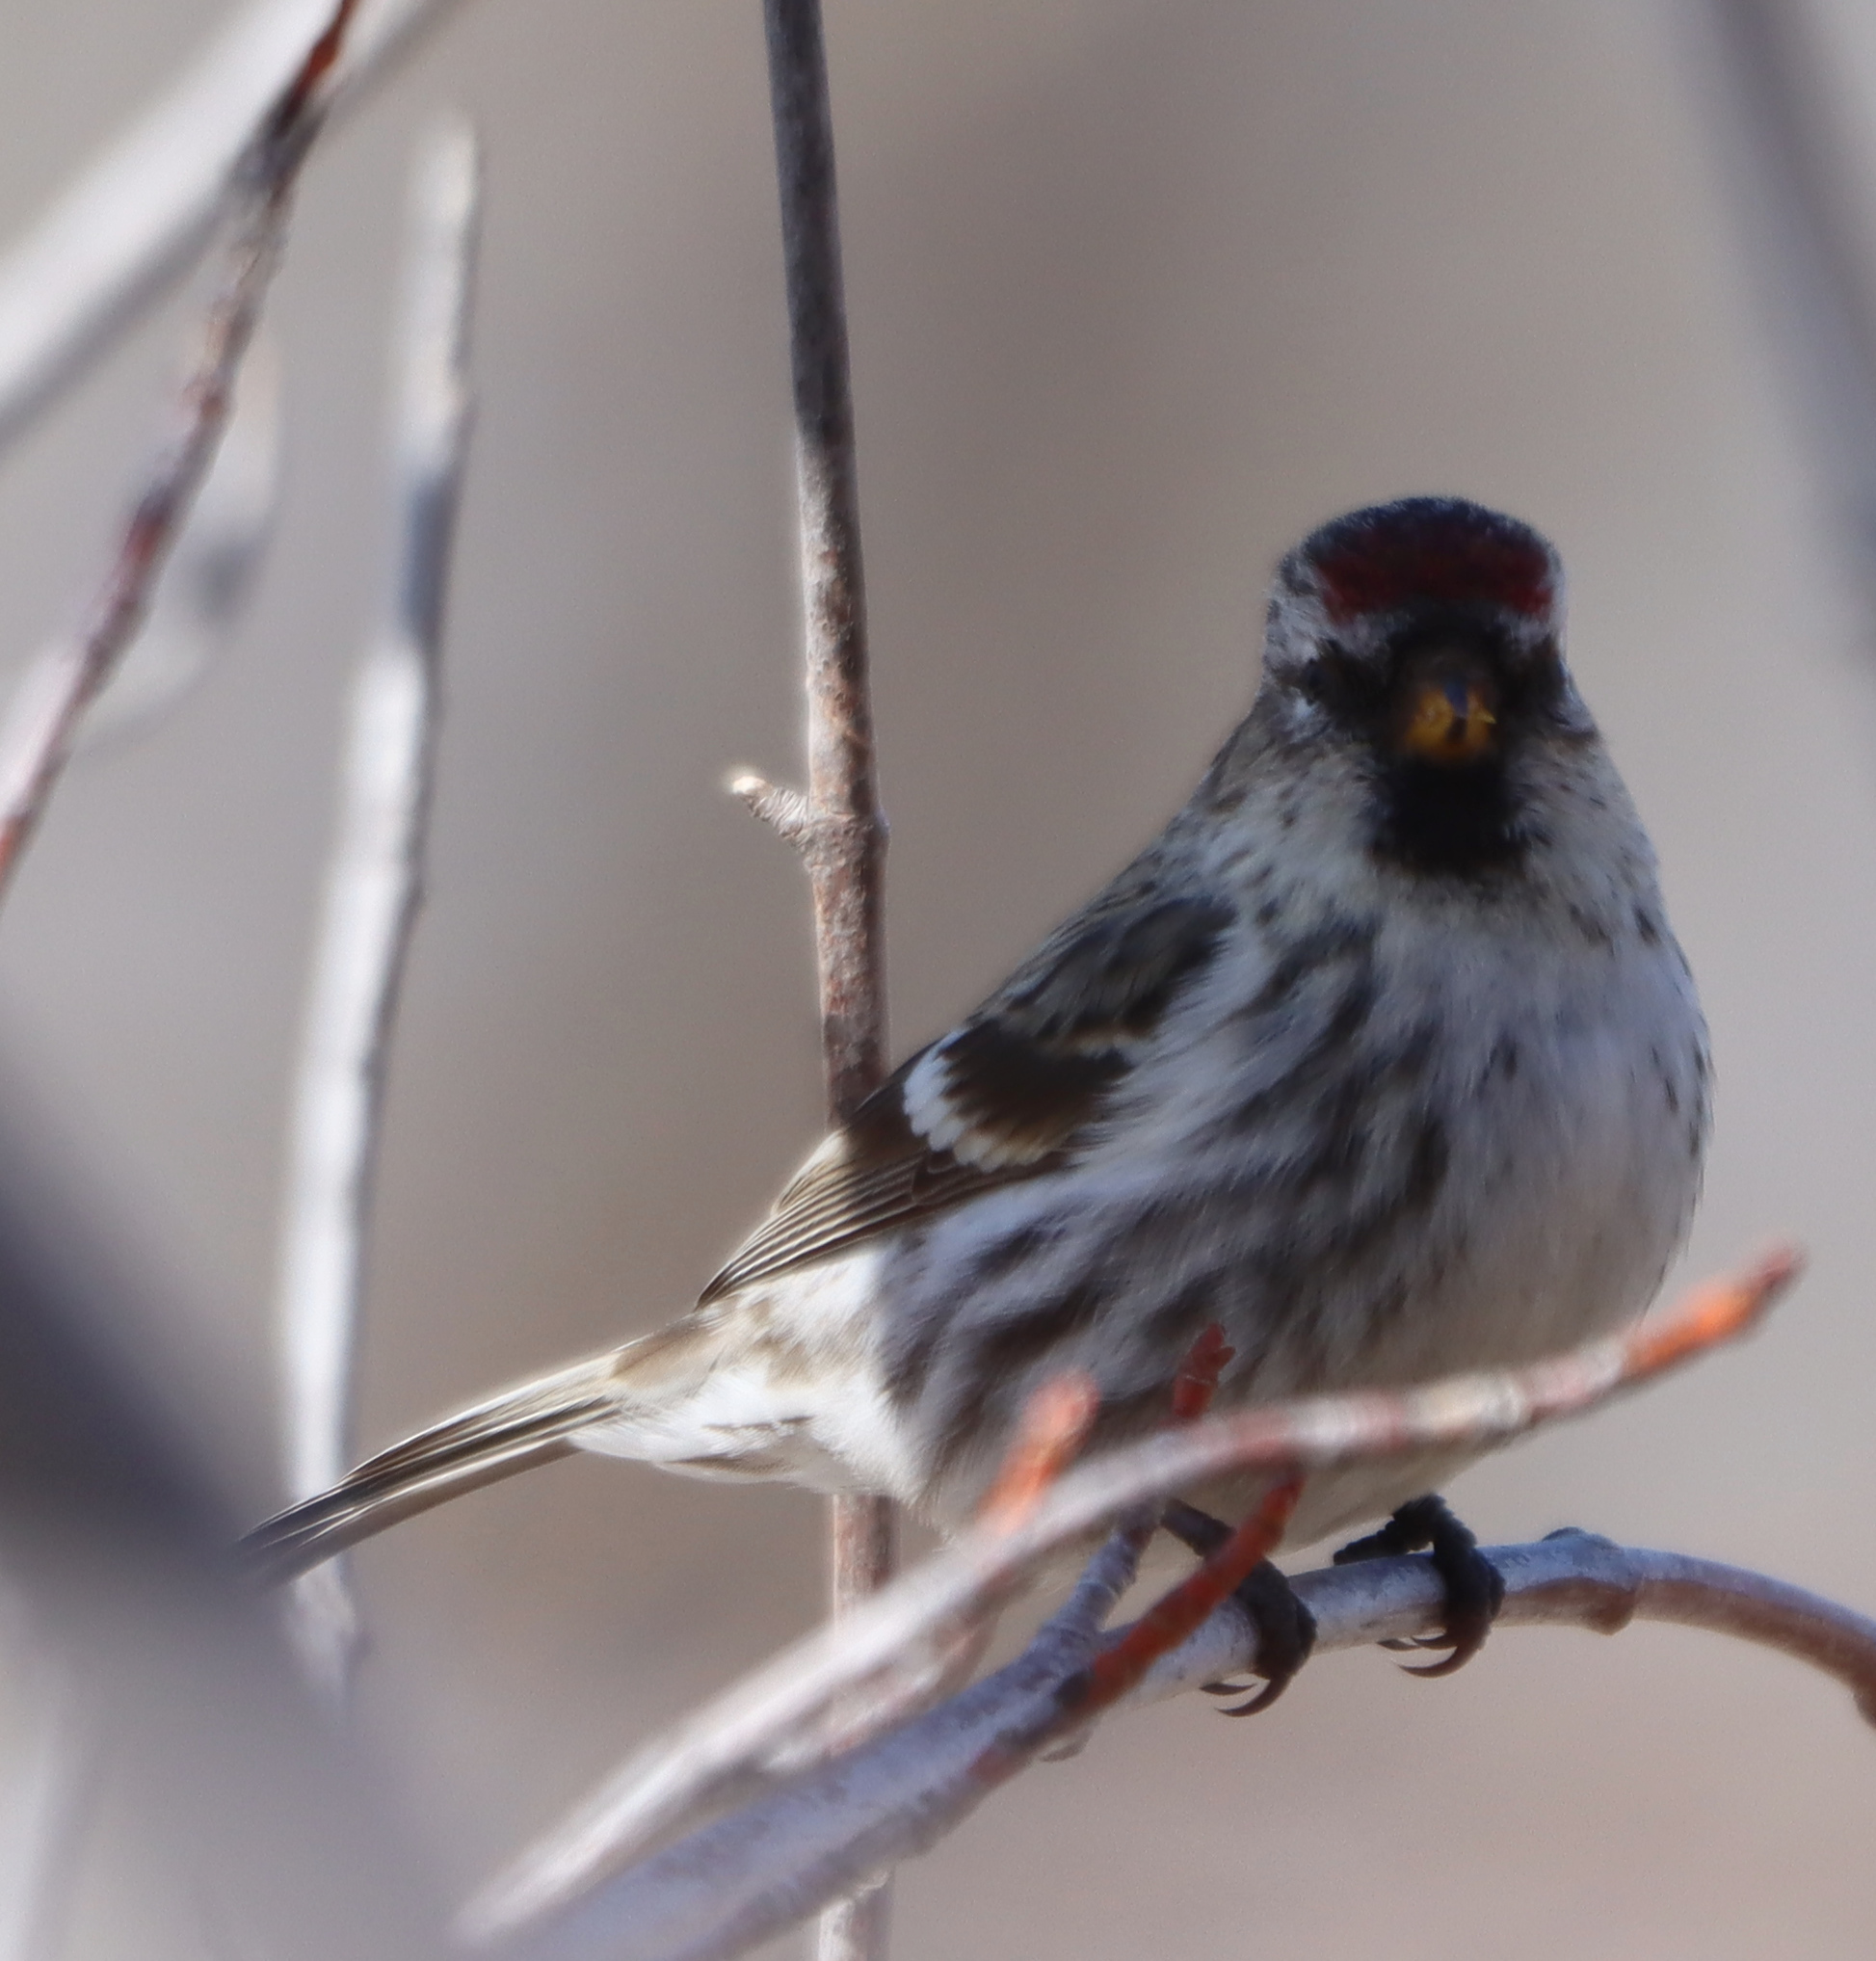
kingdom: Animalia
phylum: Chordata
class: Aves
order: Passeriformes
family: Fringillidae
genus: Acanthis
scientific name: Acanthis flammea
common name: Common redpoll
